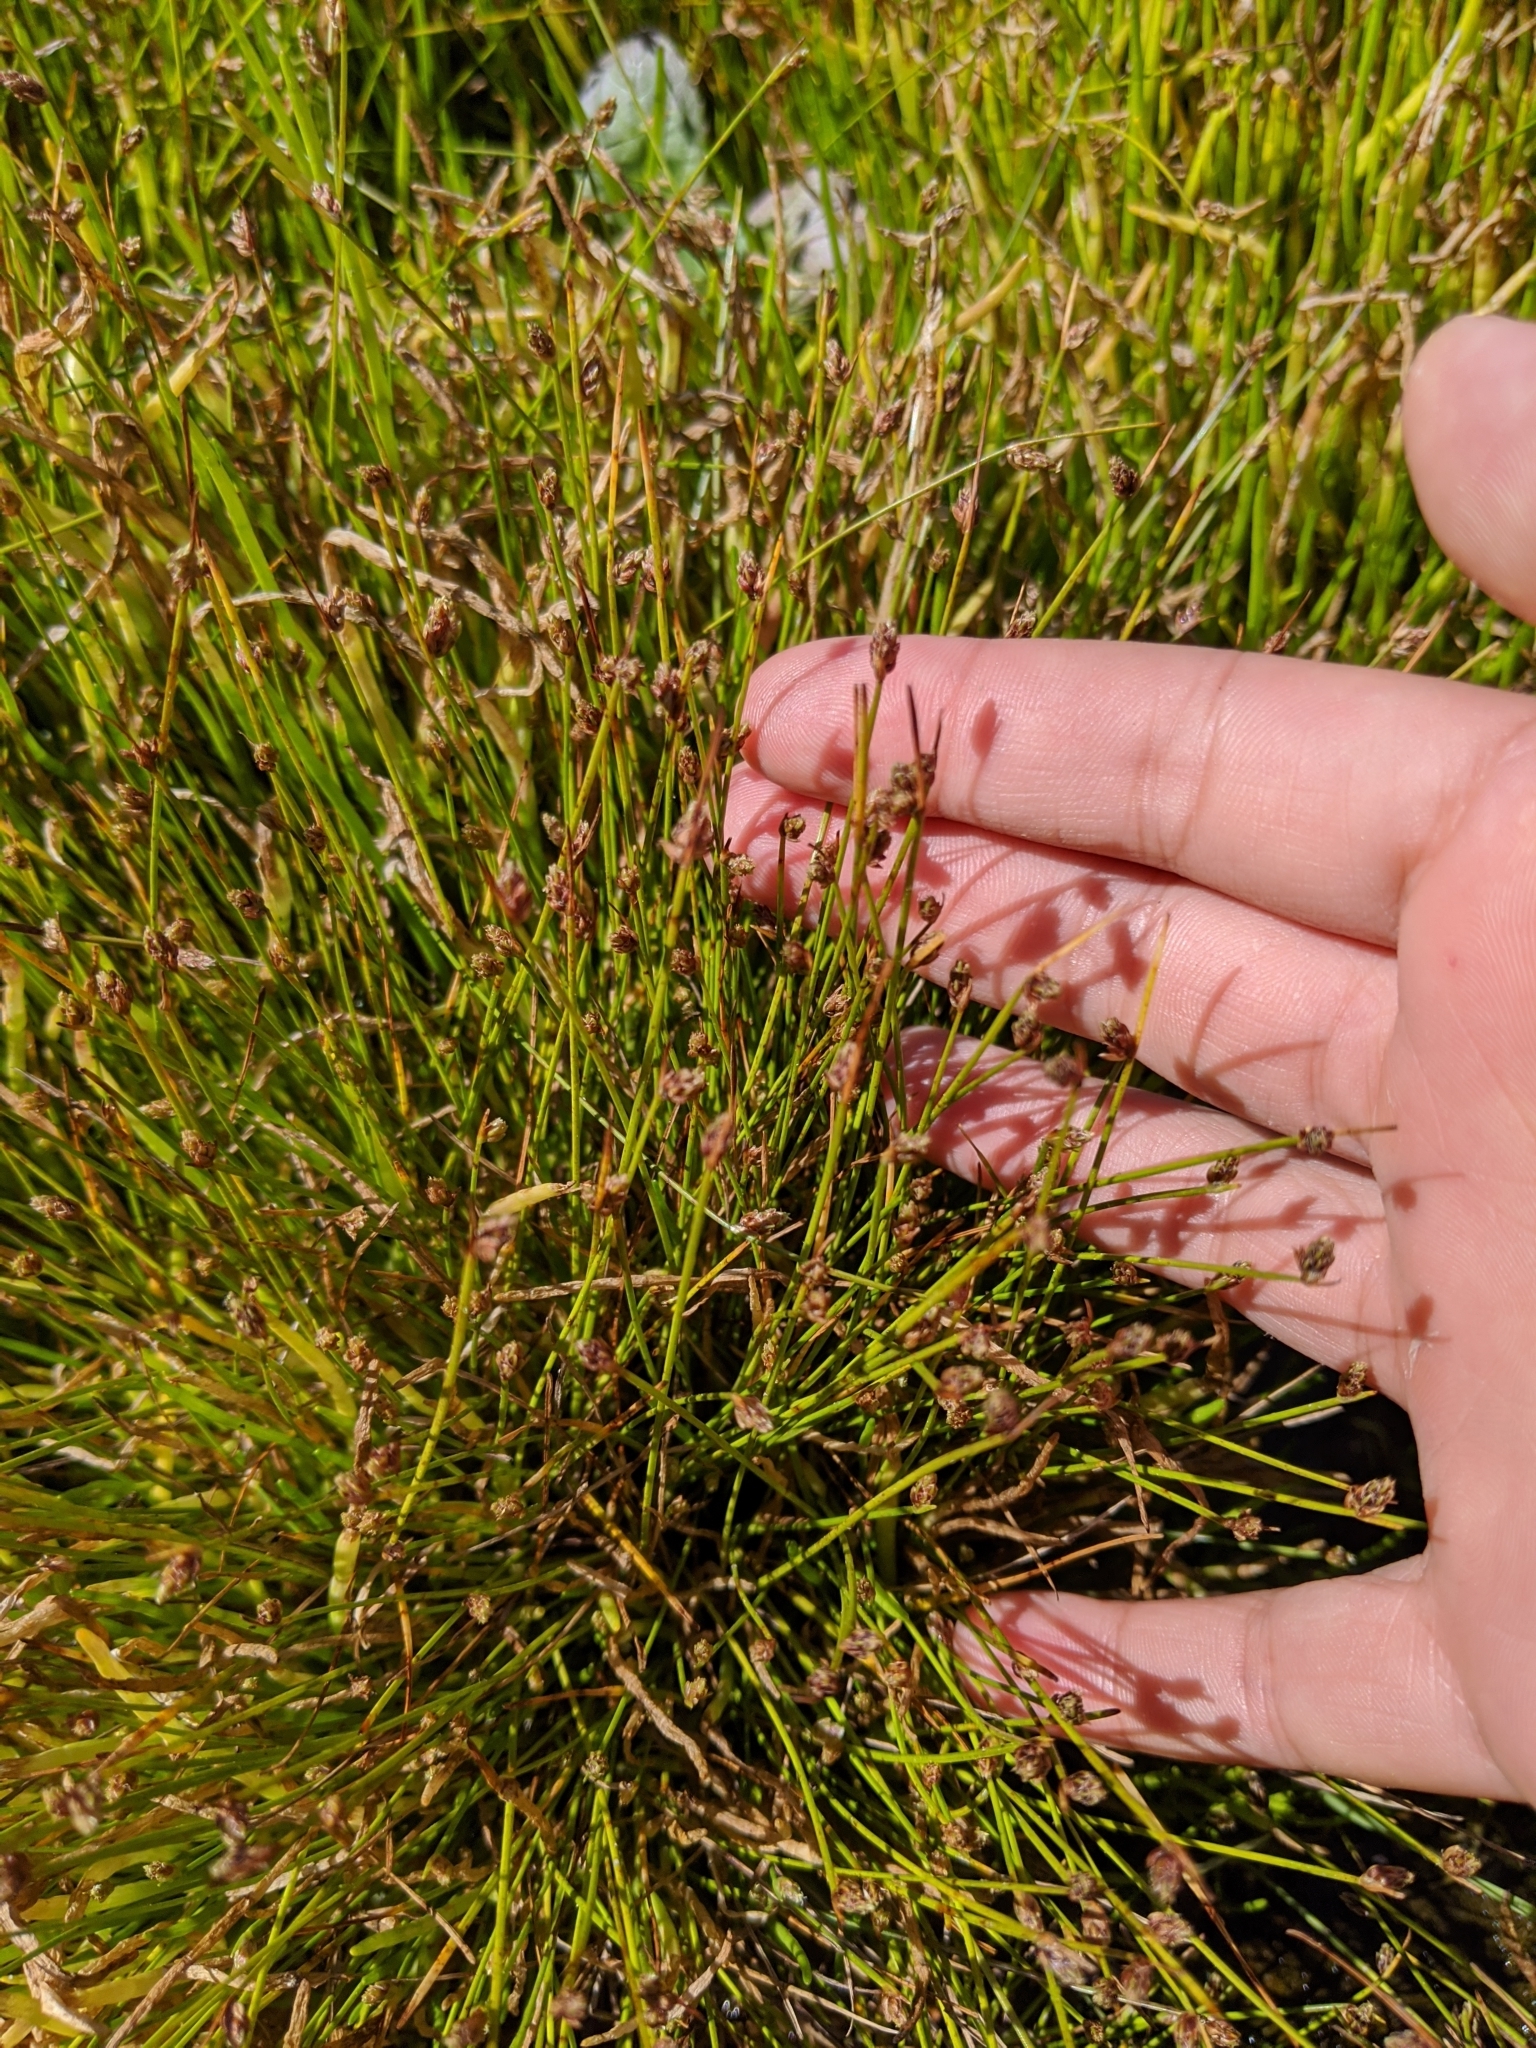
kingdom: Plantae
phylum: Tracheophyta
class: Liliopsida
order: Poales
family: Cyperaceae
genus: Isolepis
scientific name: Isolepis cernua
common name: Slender club-rush
